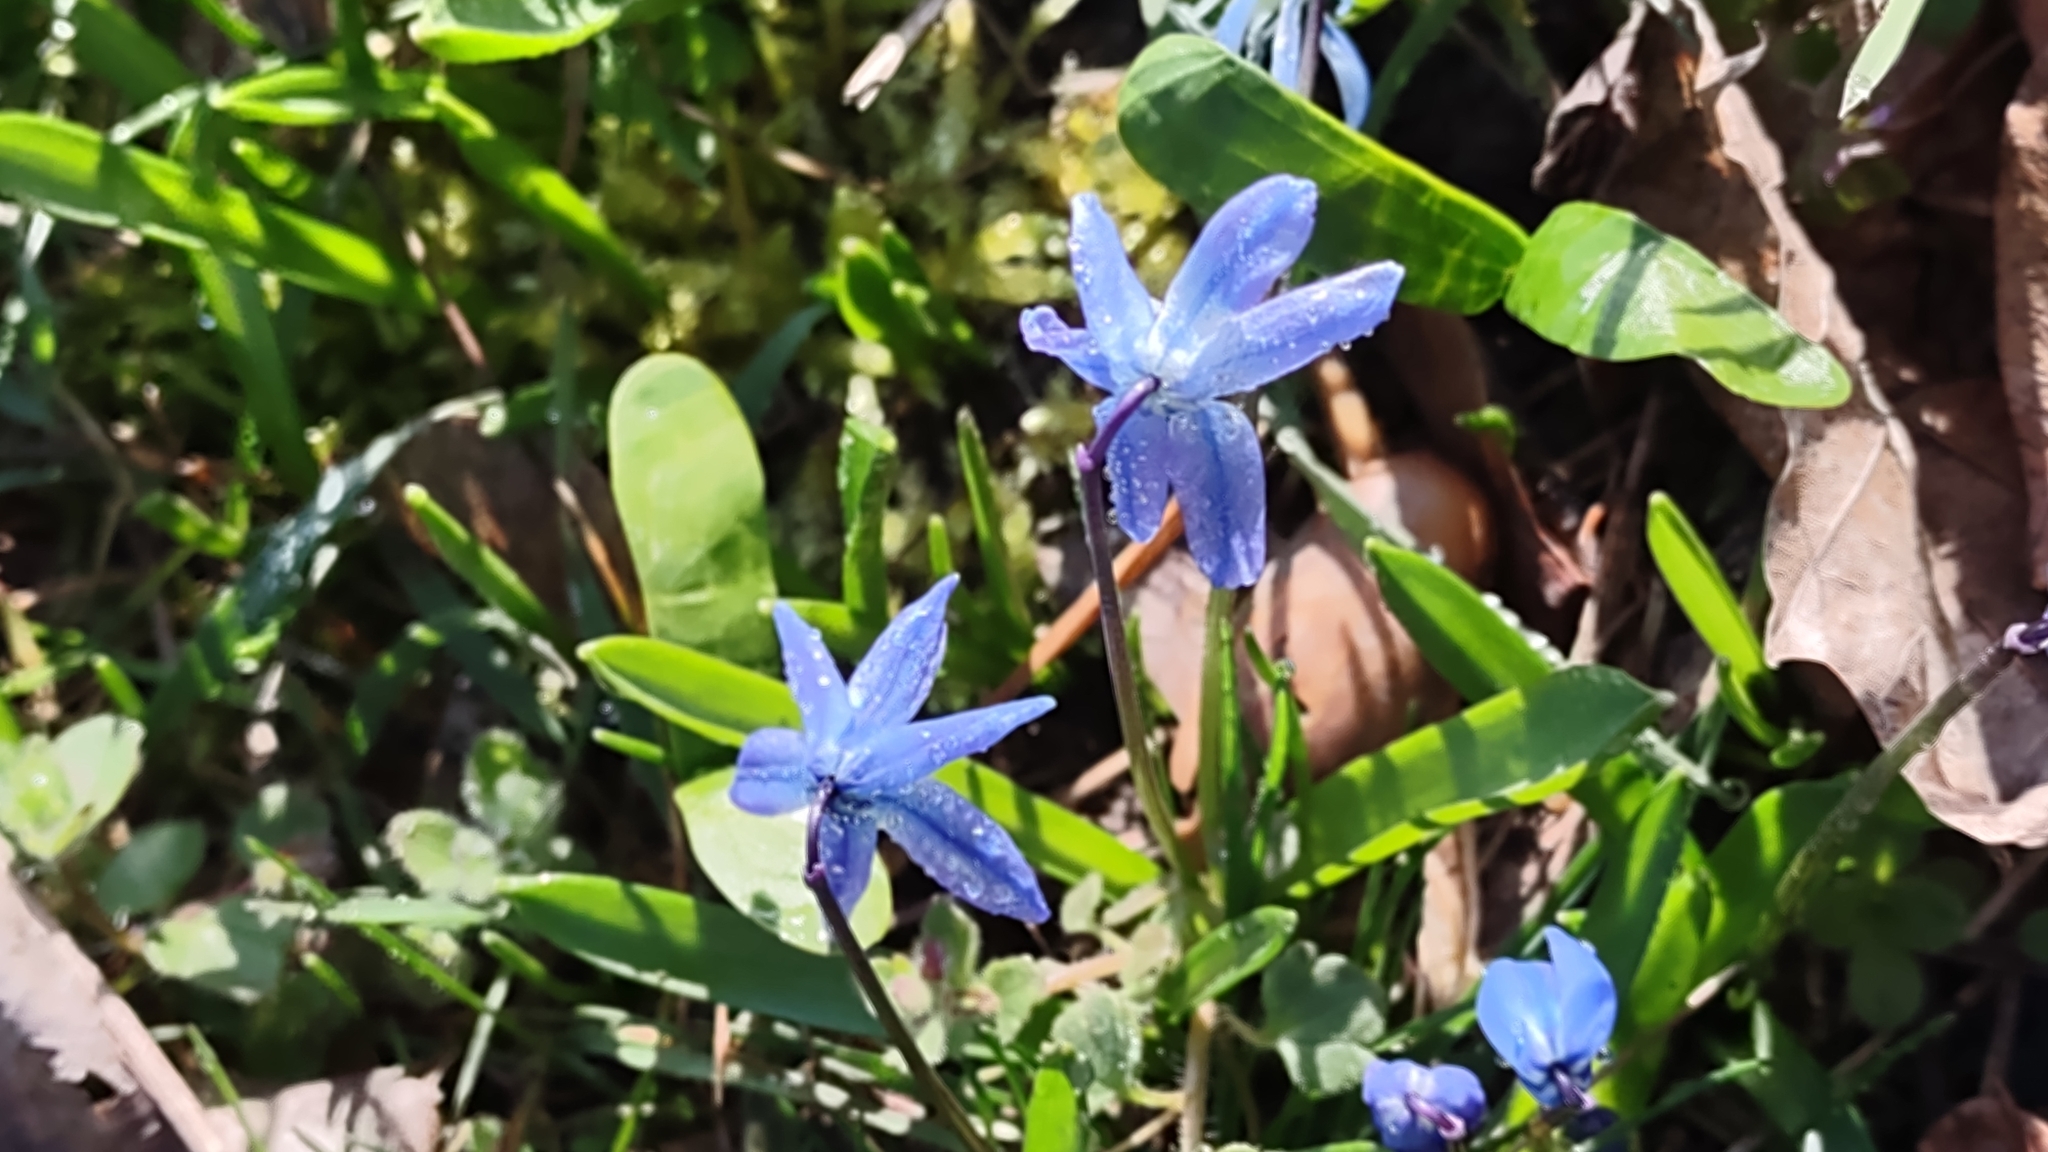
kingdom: Plantae
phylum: Tracheophyta
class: Liliopsida
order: Asparagales
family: Asparagaceae
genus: Scilla
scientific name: Scilla siberica
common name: Siberian squill
